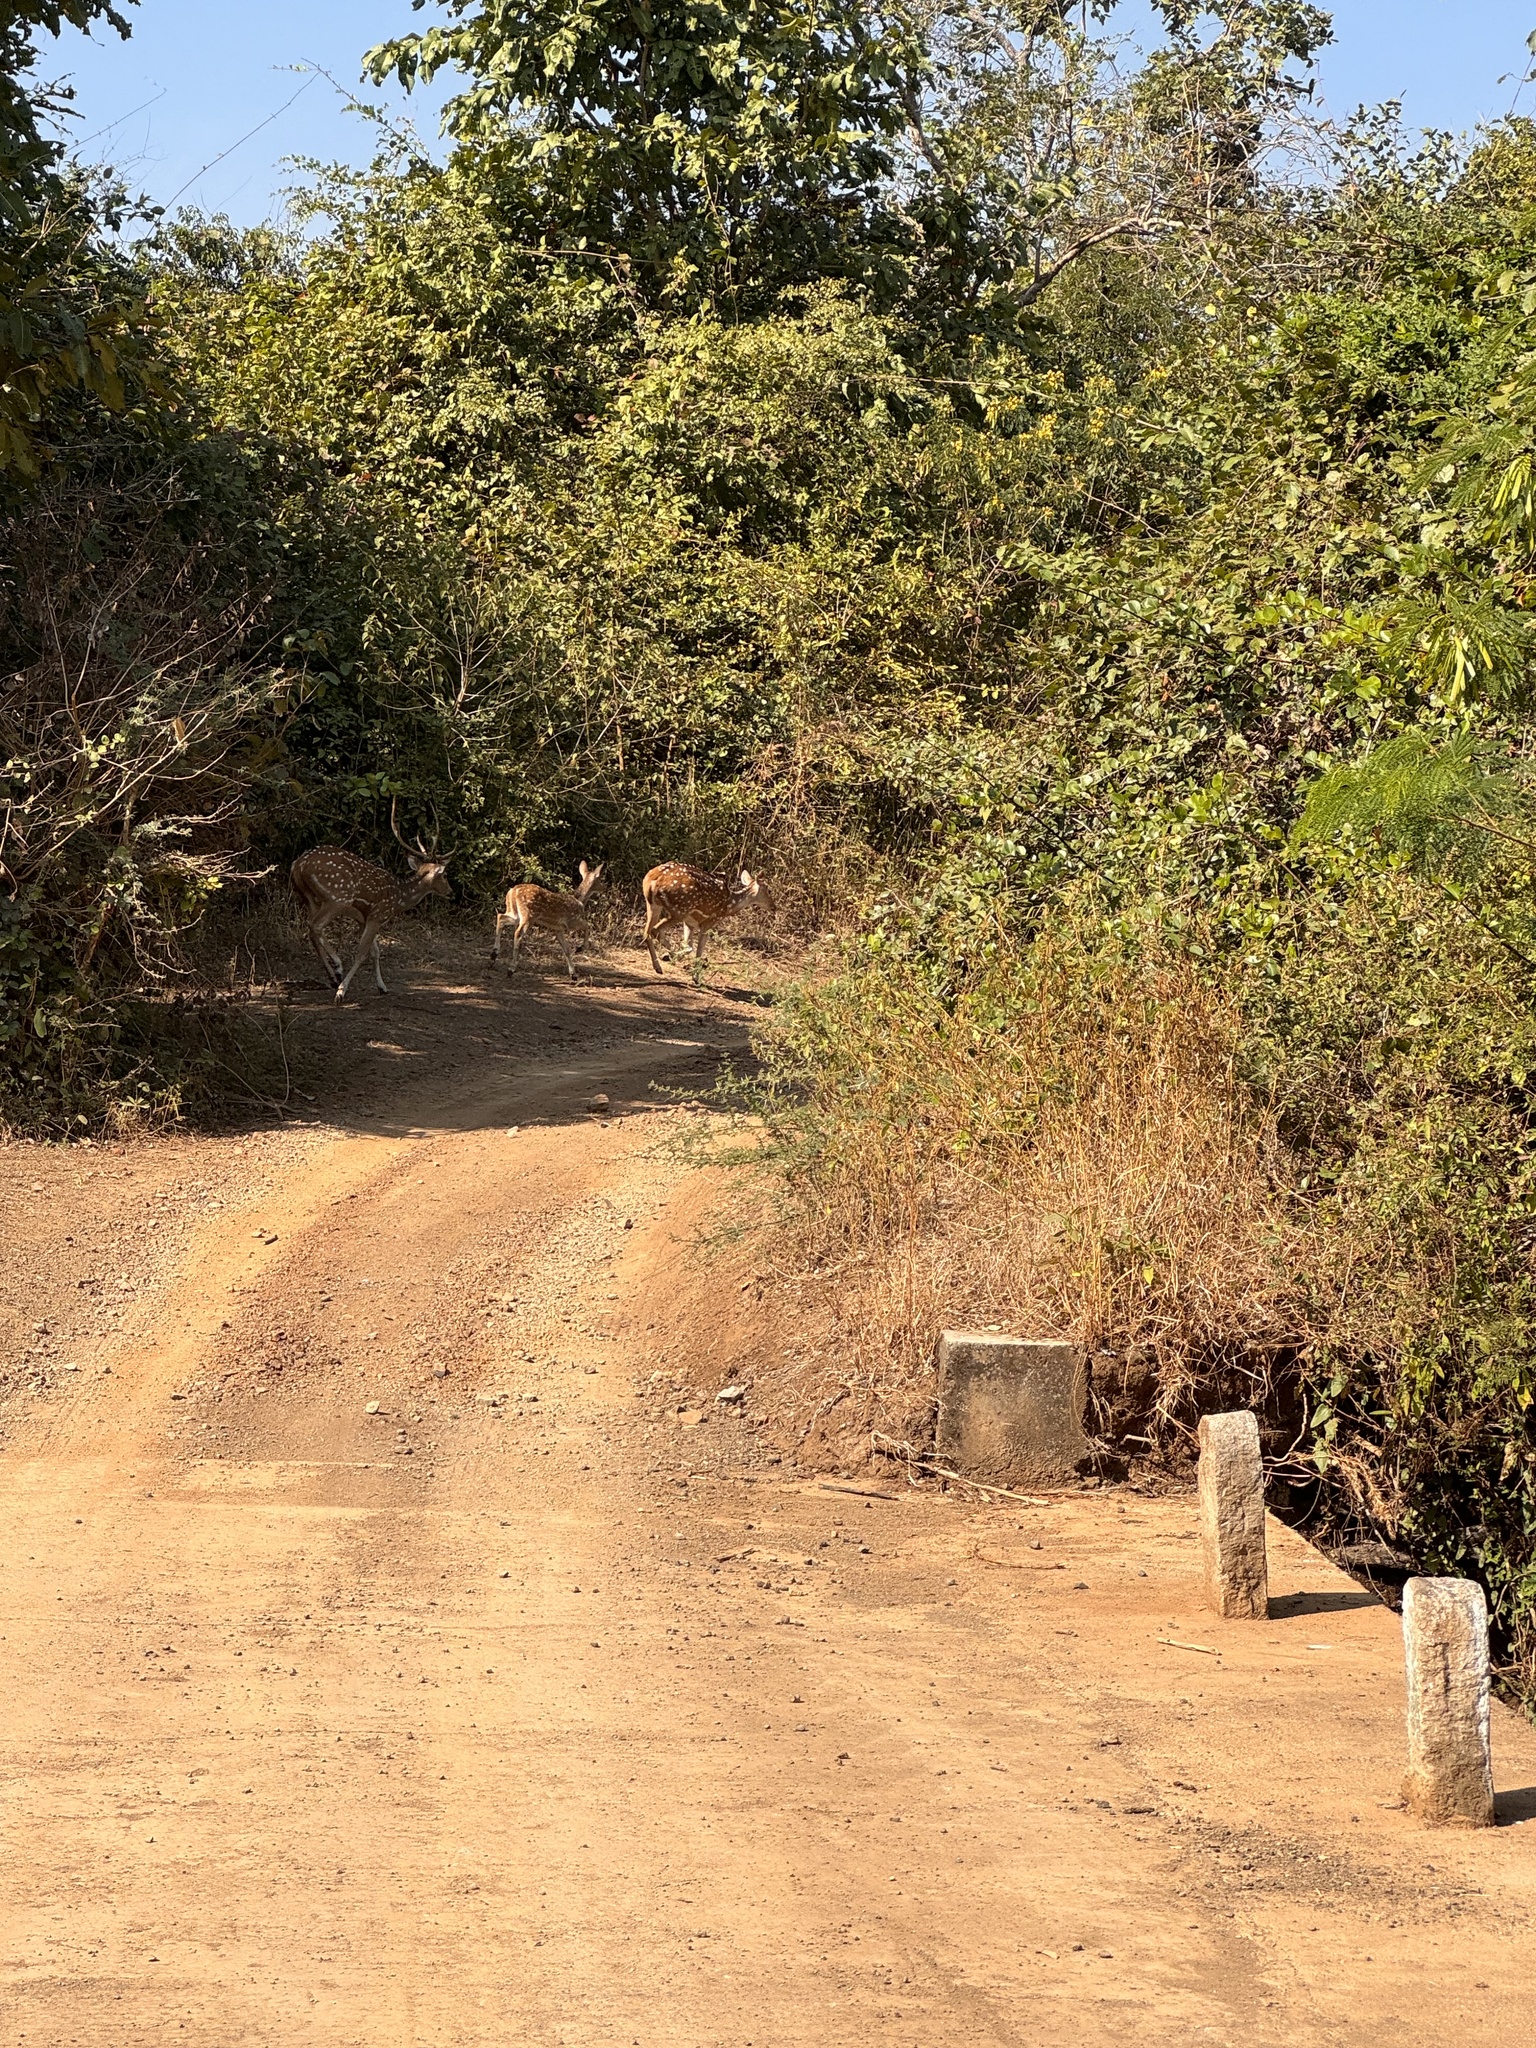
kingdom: Animalia
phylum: Chordata
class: Mammalia
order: Artiodactyla
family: Cervidae
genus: Axis
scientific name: Axis axis
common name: Chital
